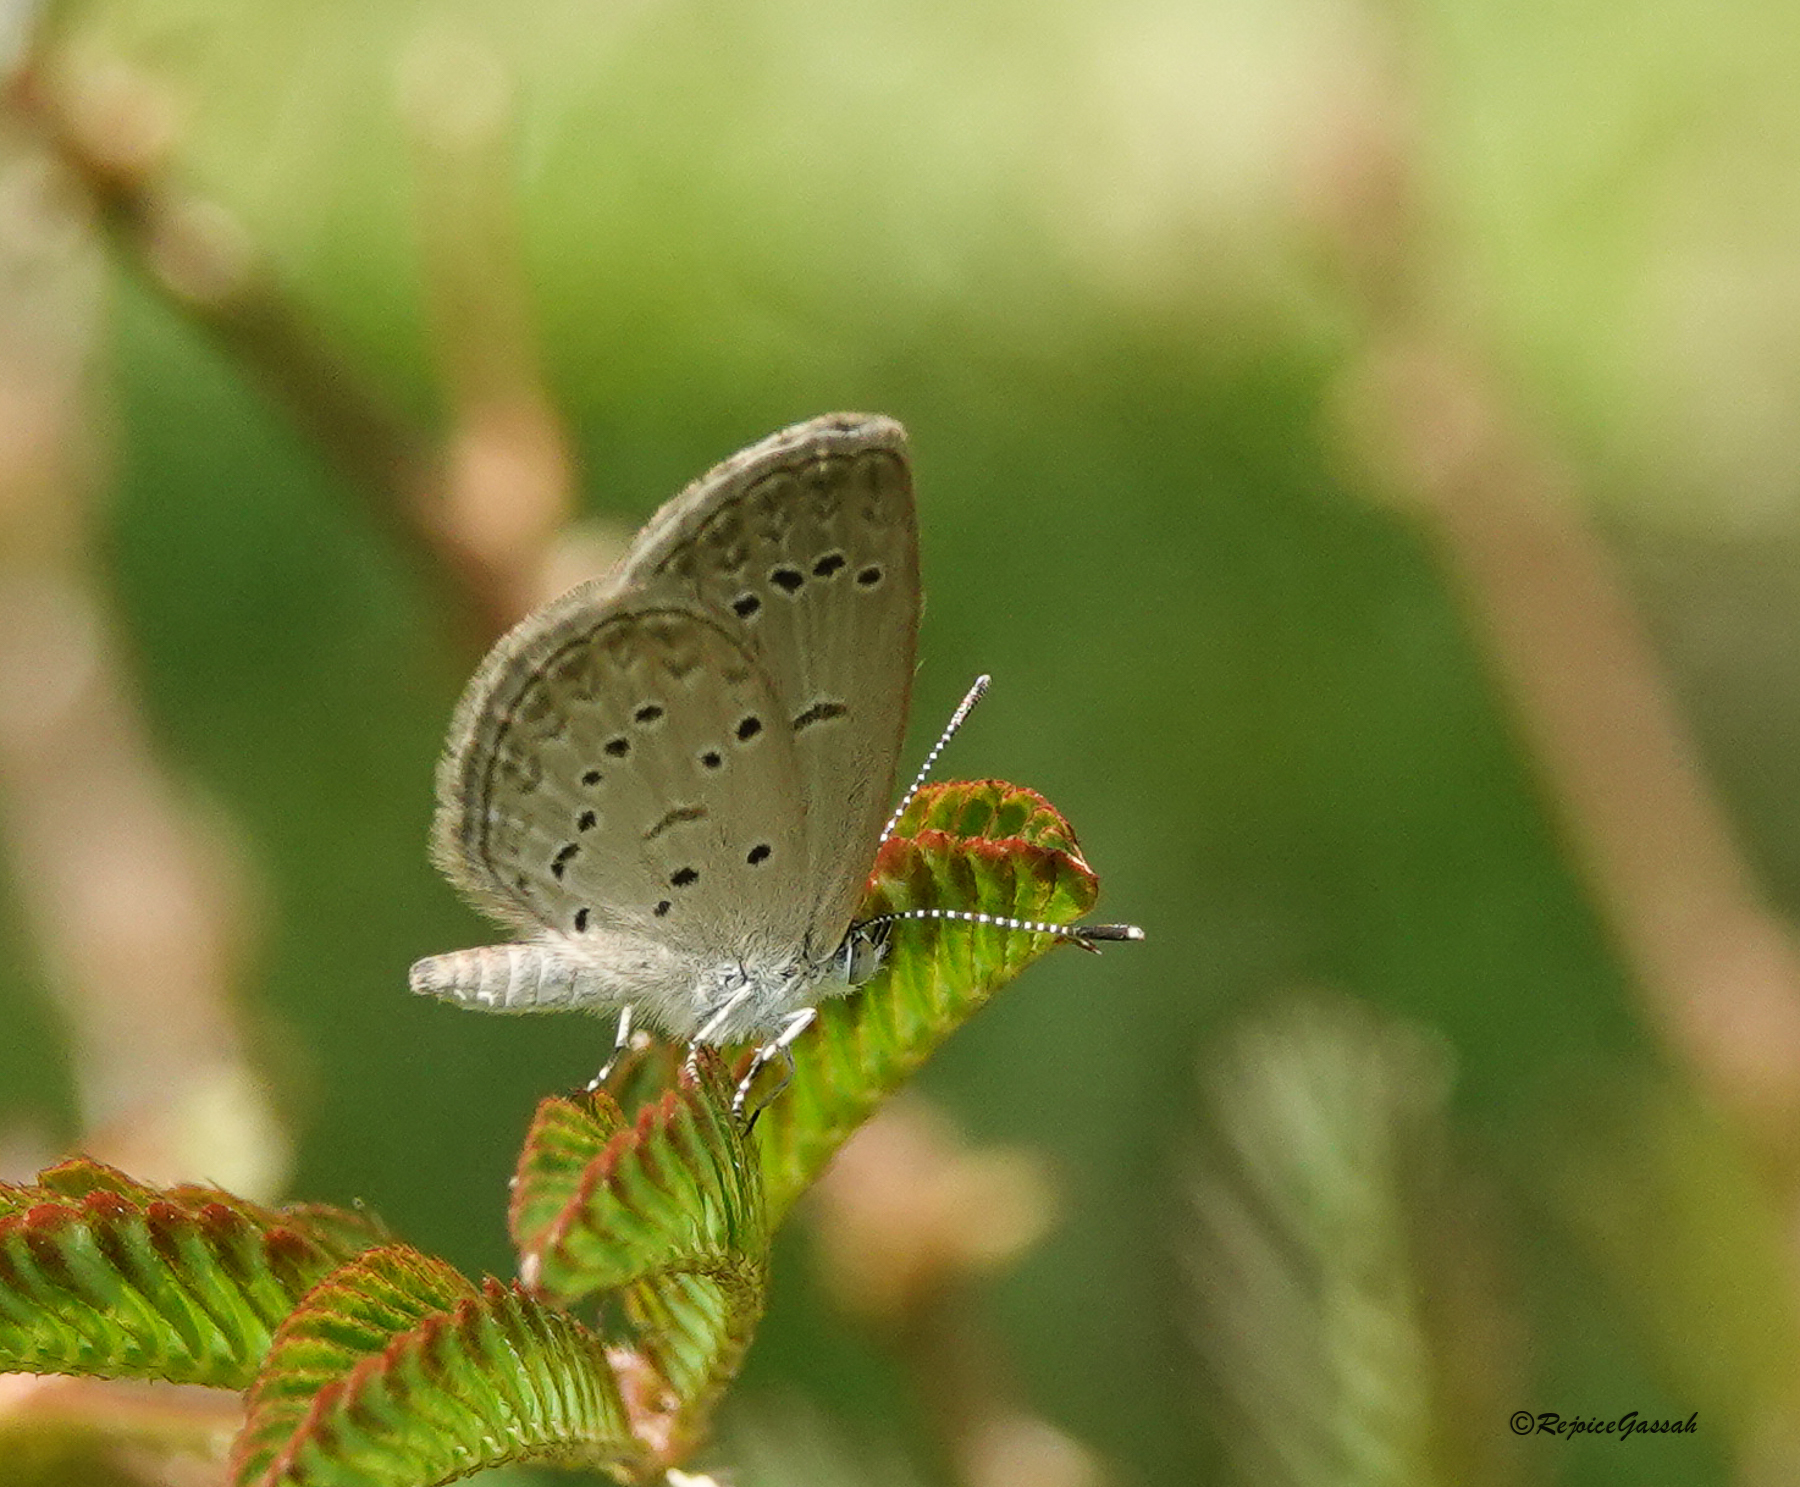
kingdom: Animalia
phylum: Arthropoda
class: Insecta
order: Lepidoptera
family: Lycaenidae
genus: Zizina
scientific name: Zizina otis
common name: Lesser grass blue
